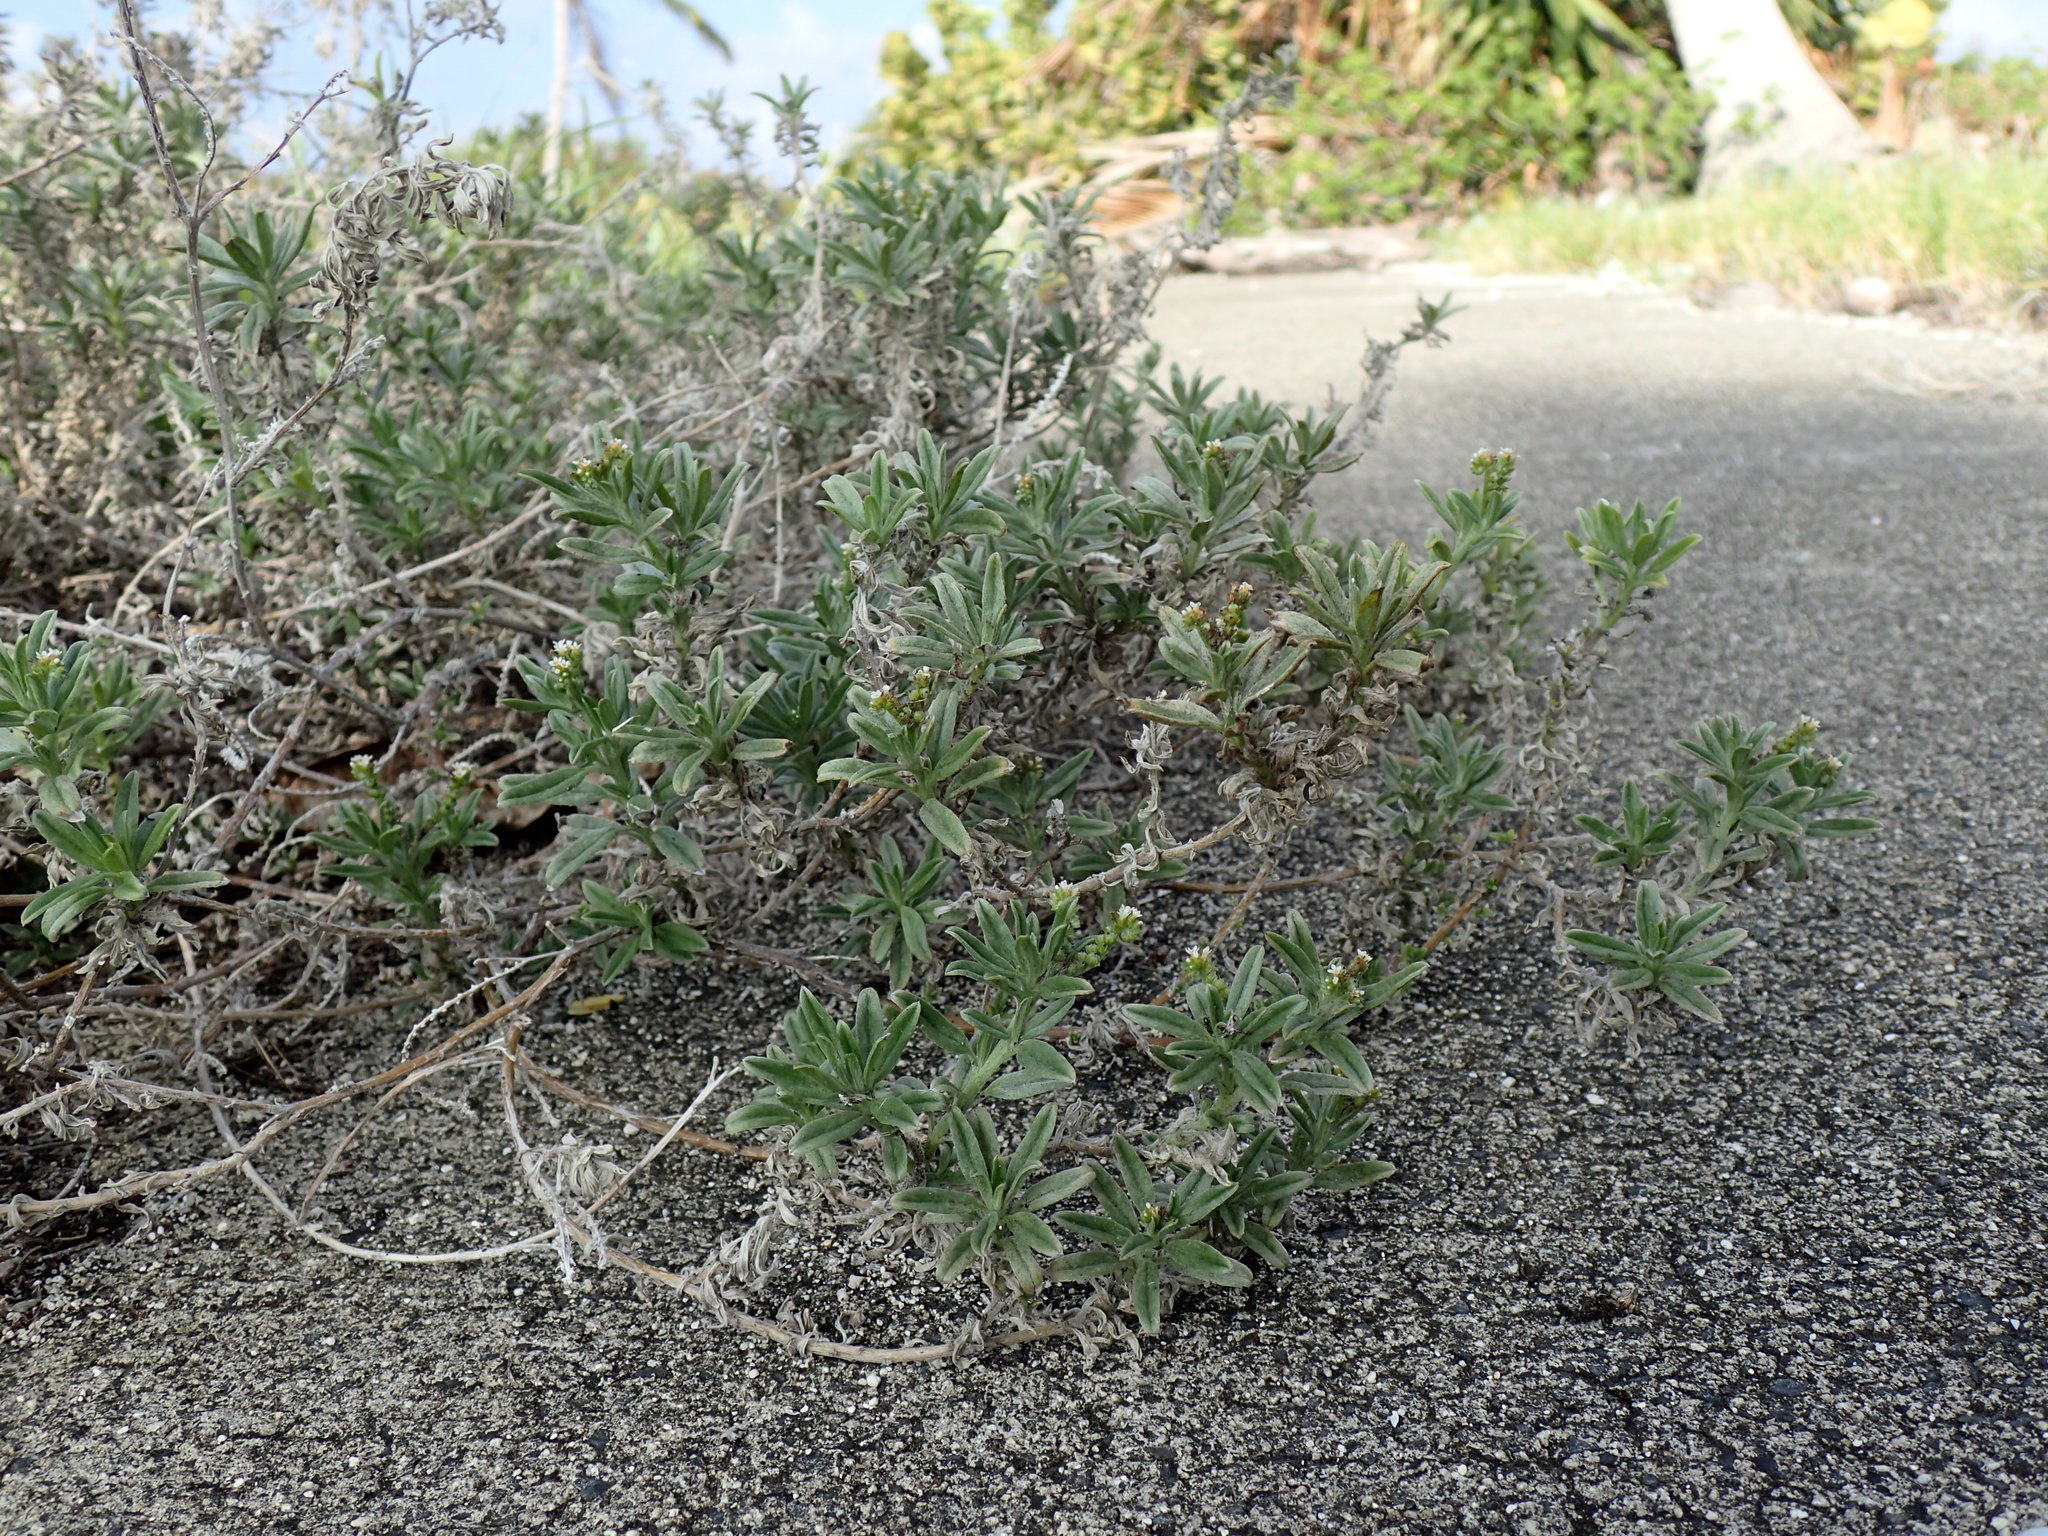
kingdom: Plantae
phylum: Tracheophyta
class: Magnoliopsida
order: Boraginales
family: Heliotropiaceae
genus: Euploca
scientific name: Euploca procumbens
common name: Fourspike heliotrope
